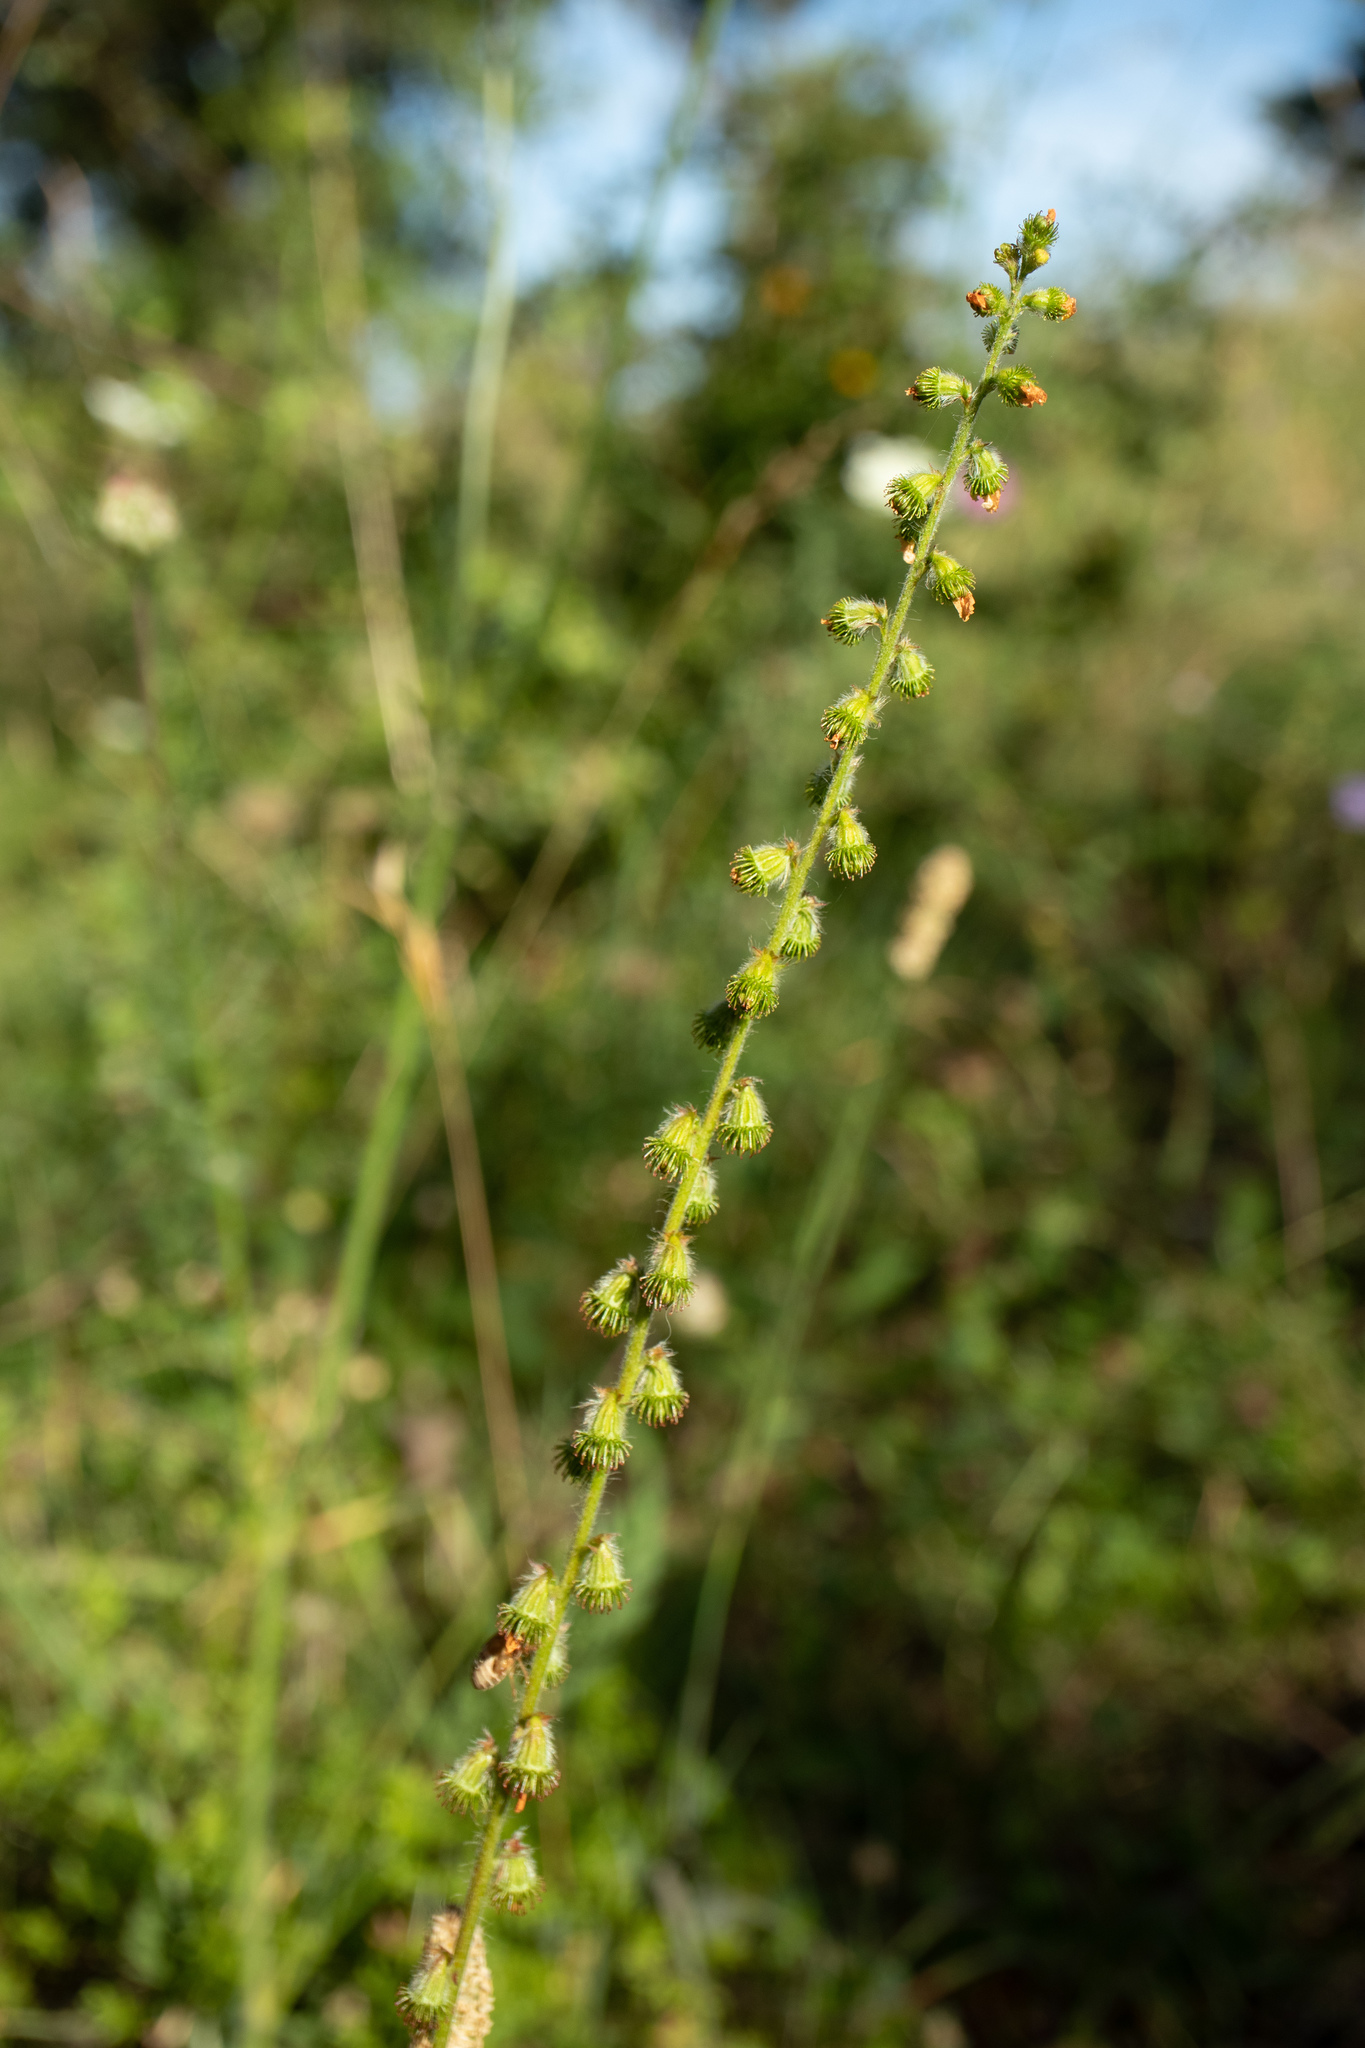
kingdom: Plantae
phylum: Tracheophyta
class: Magnoliopsida
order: Rosales
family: Rosaceae
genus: Agrimonia
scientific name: Agrimonia eupatoria
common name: Agrimony
